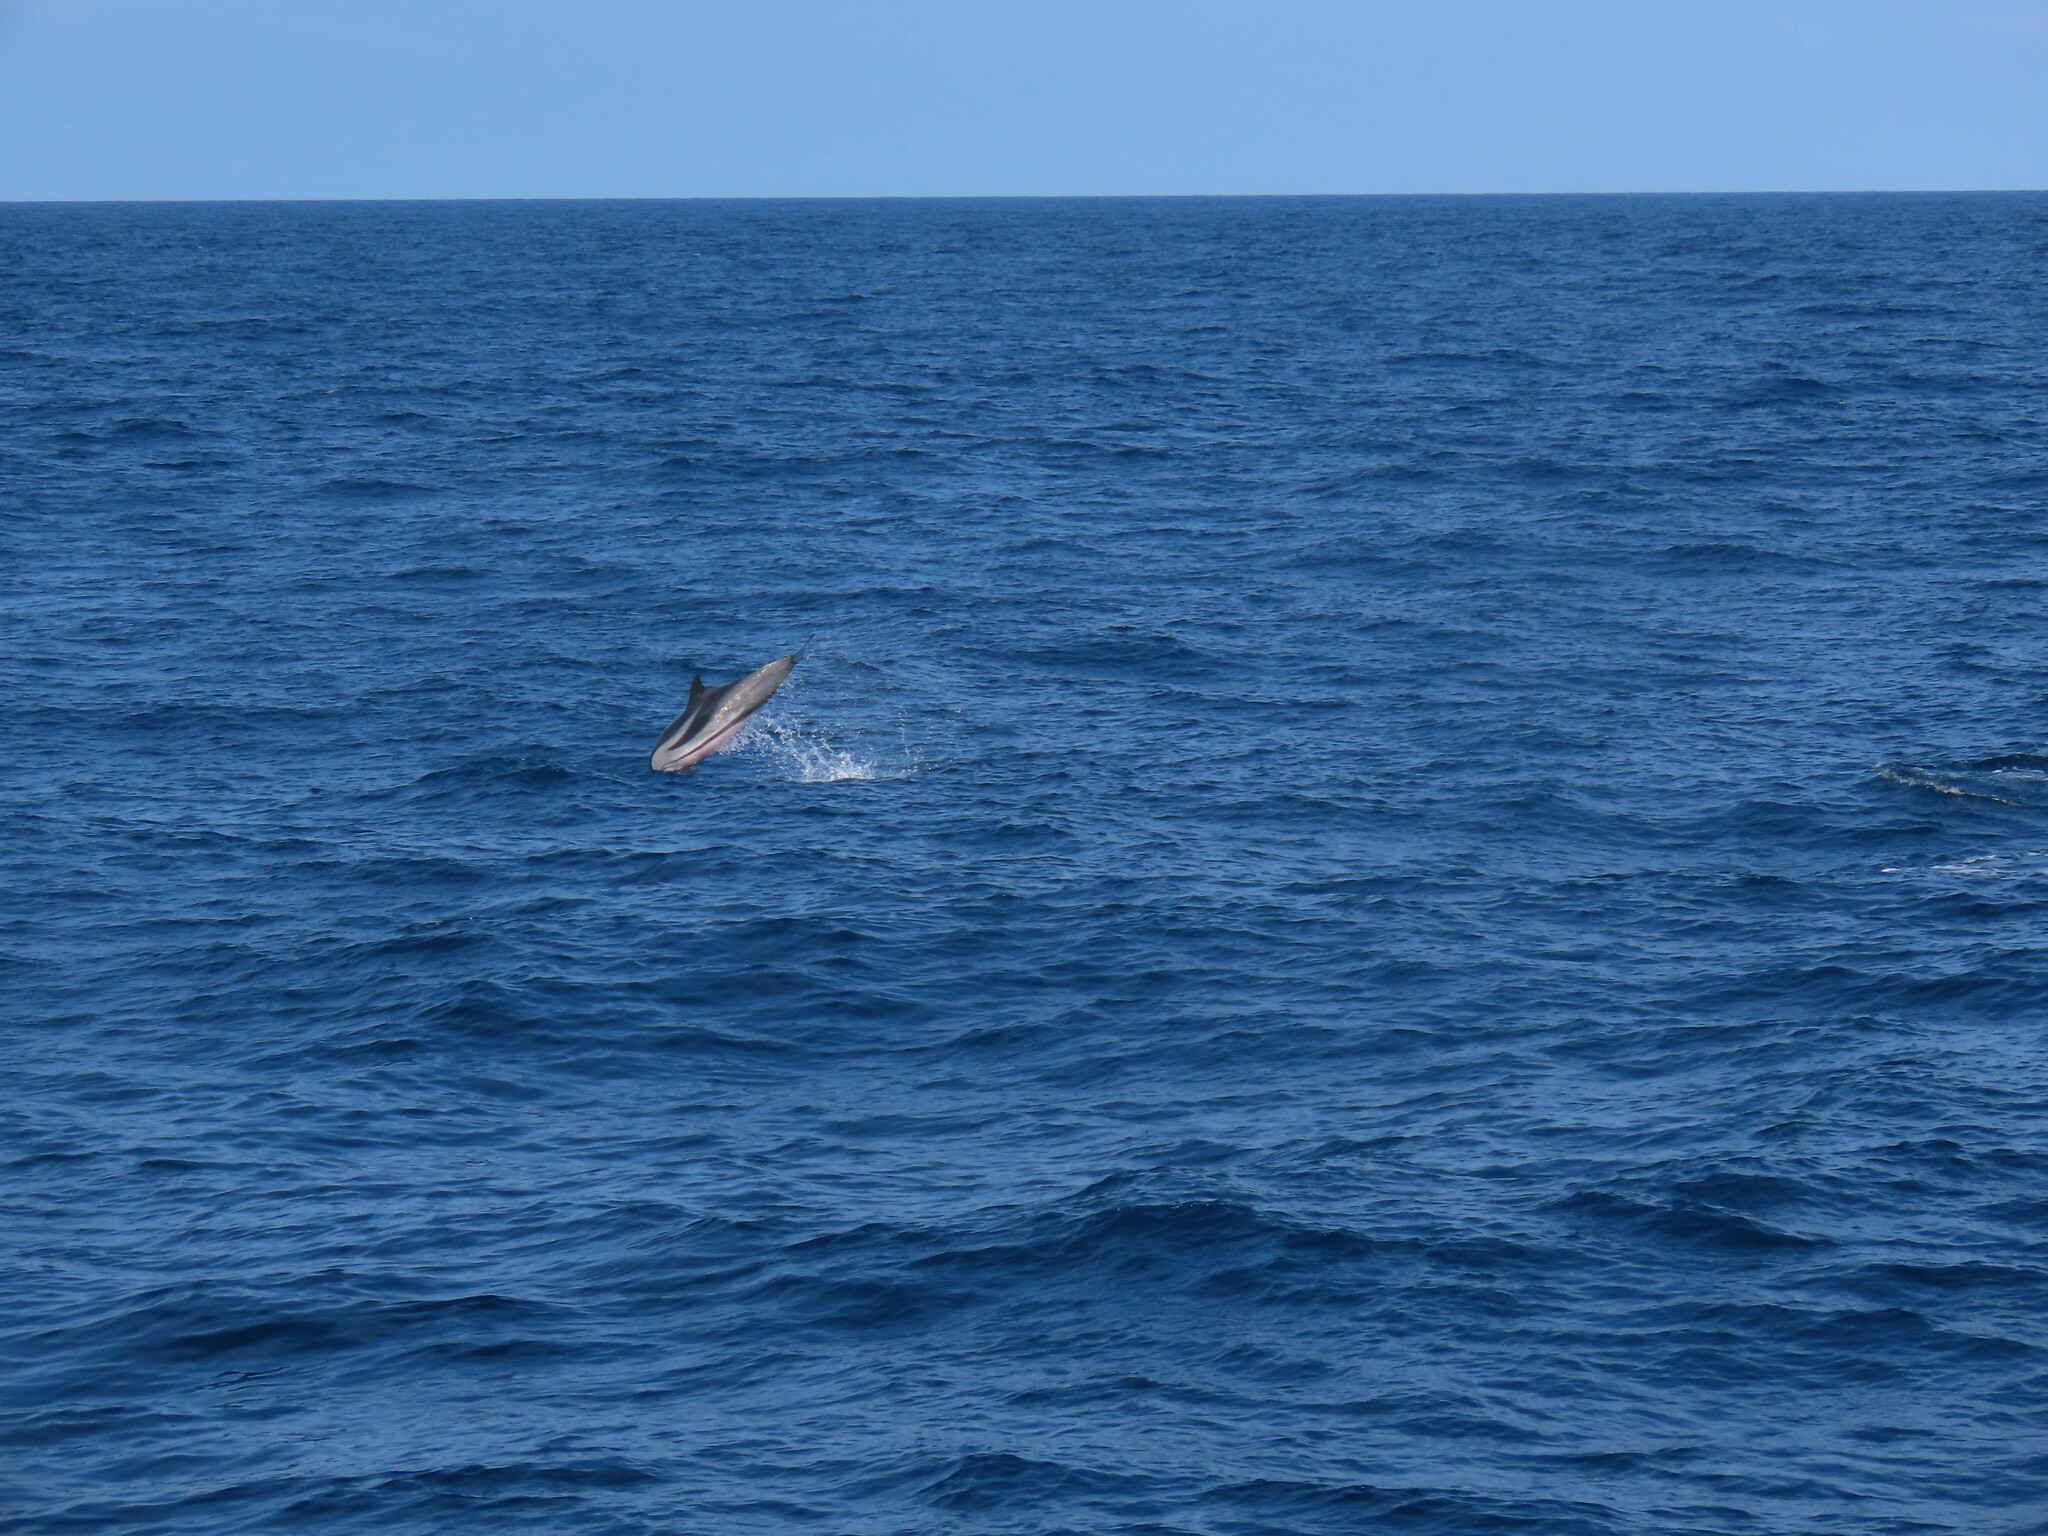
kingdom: Animalia
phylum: Chordata
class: Mammalia
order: Cetacea
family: Delphinidae
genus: Stenella
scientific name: Stenella coeruleoalba
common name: Striped dolphin
